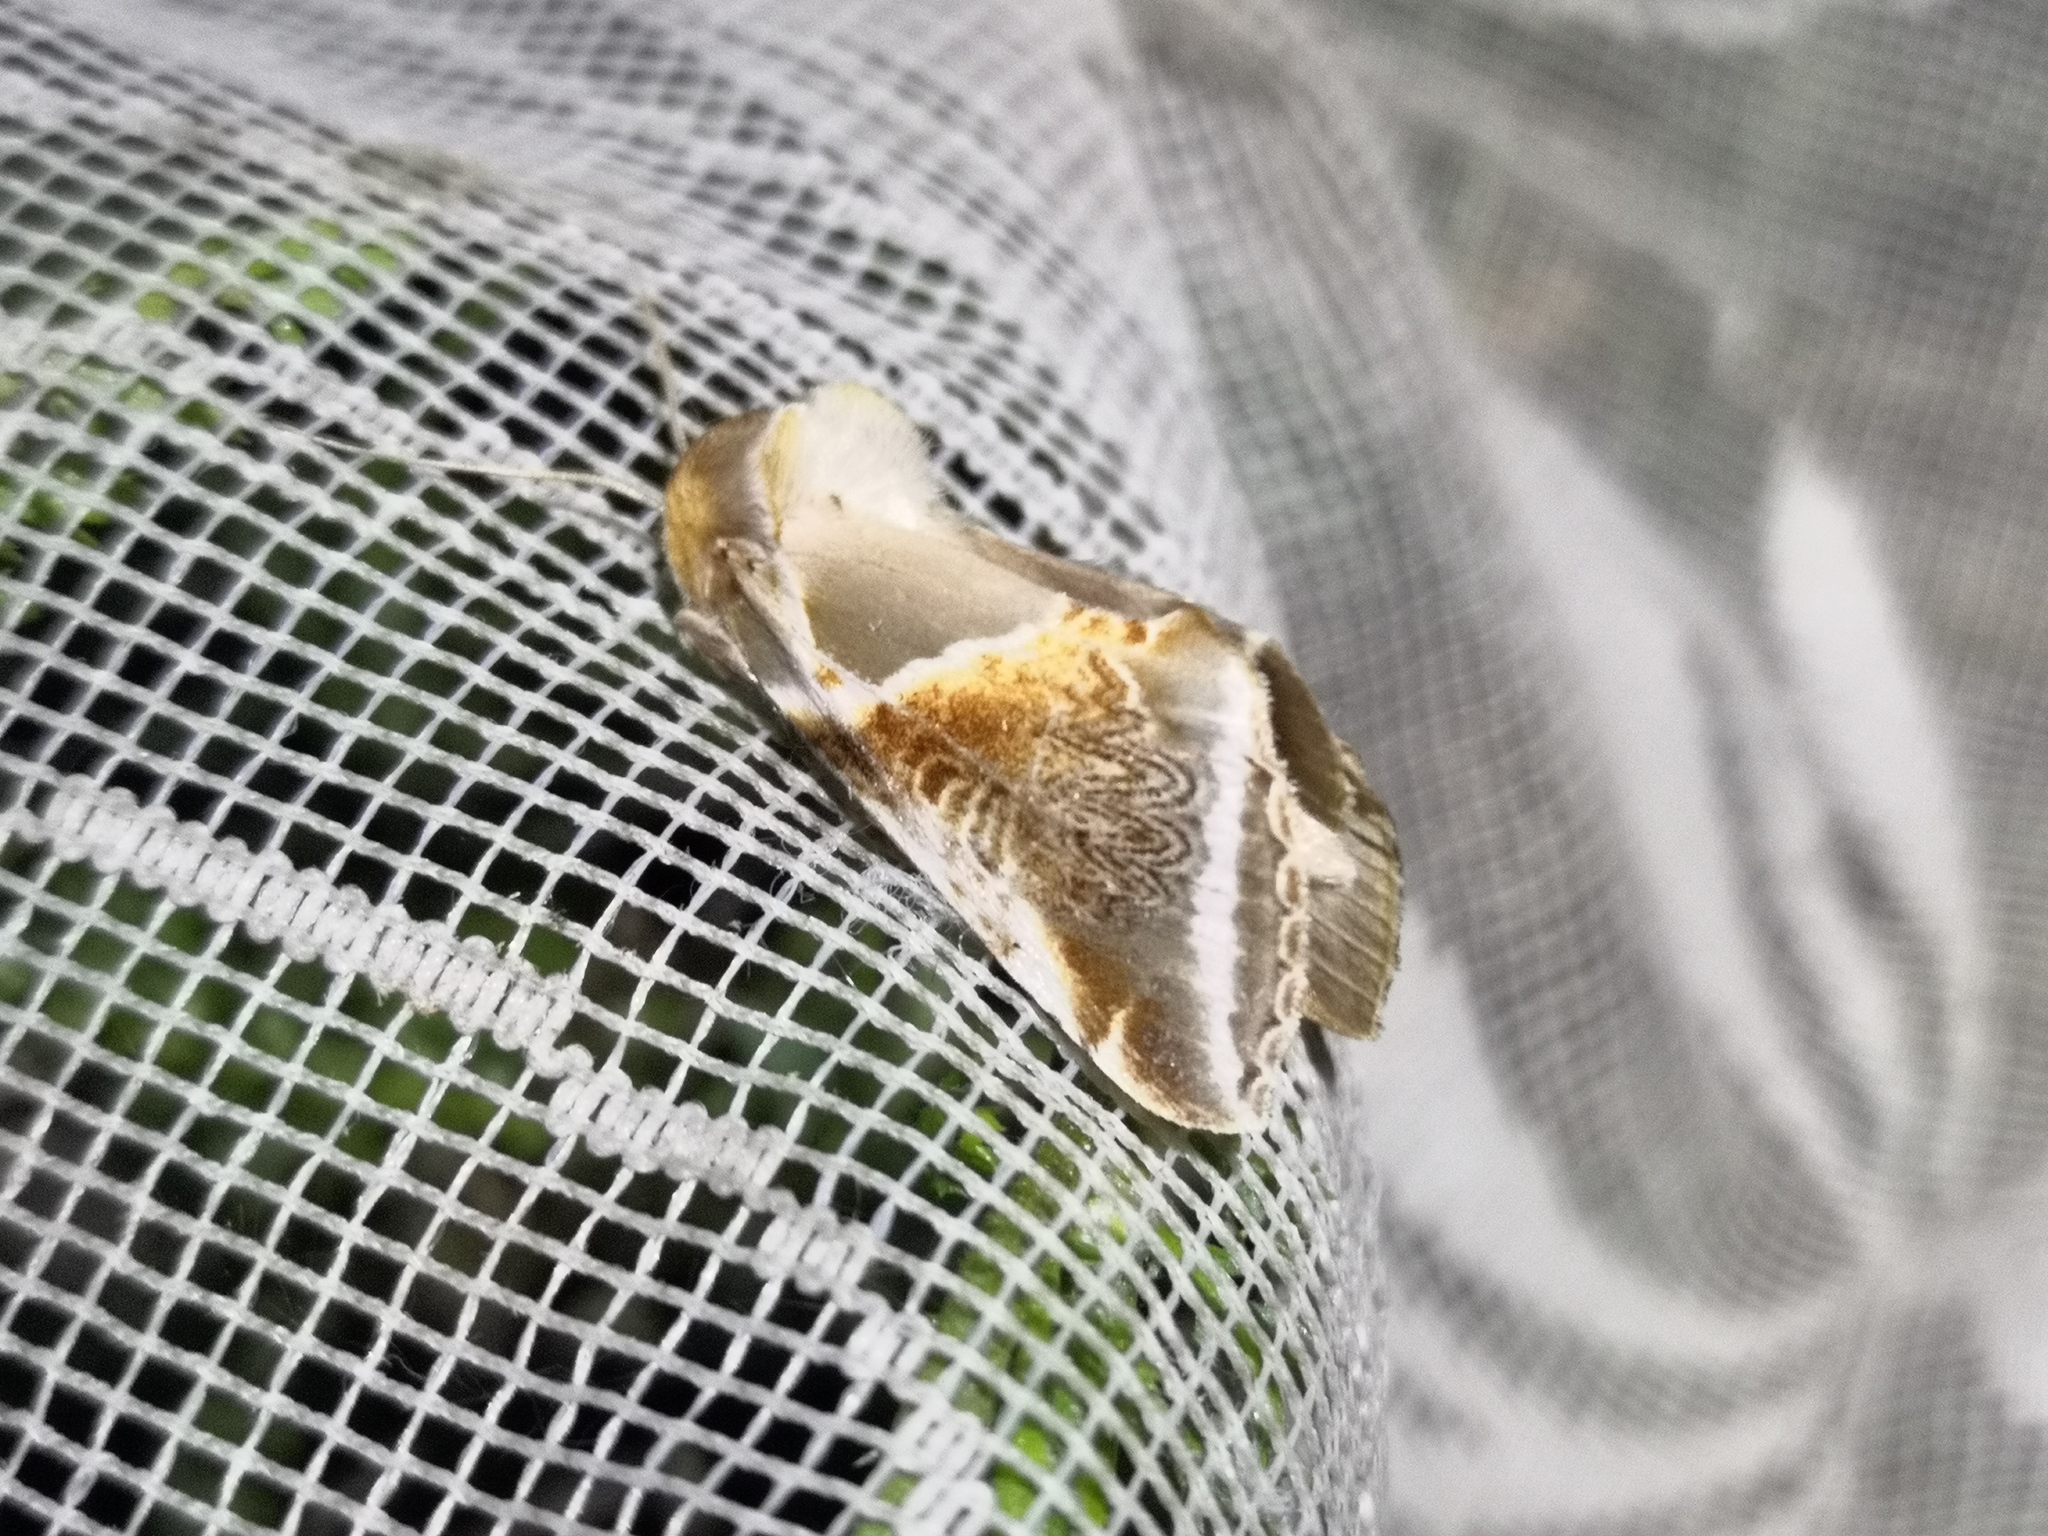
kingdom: Animalia
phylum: Arthropoda
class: Insecta
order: Lepidoptera
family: Drepanidae
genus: Habrosyne
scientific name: Habrosyne pyritoides
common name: Buff arches
